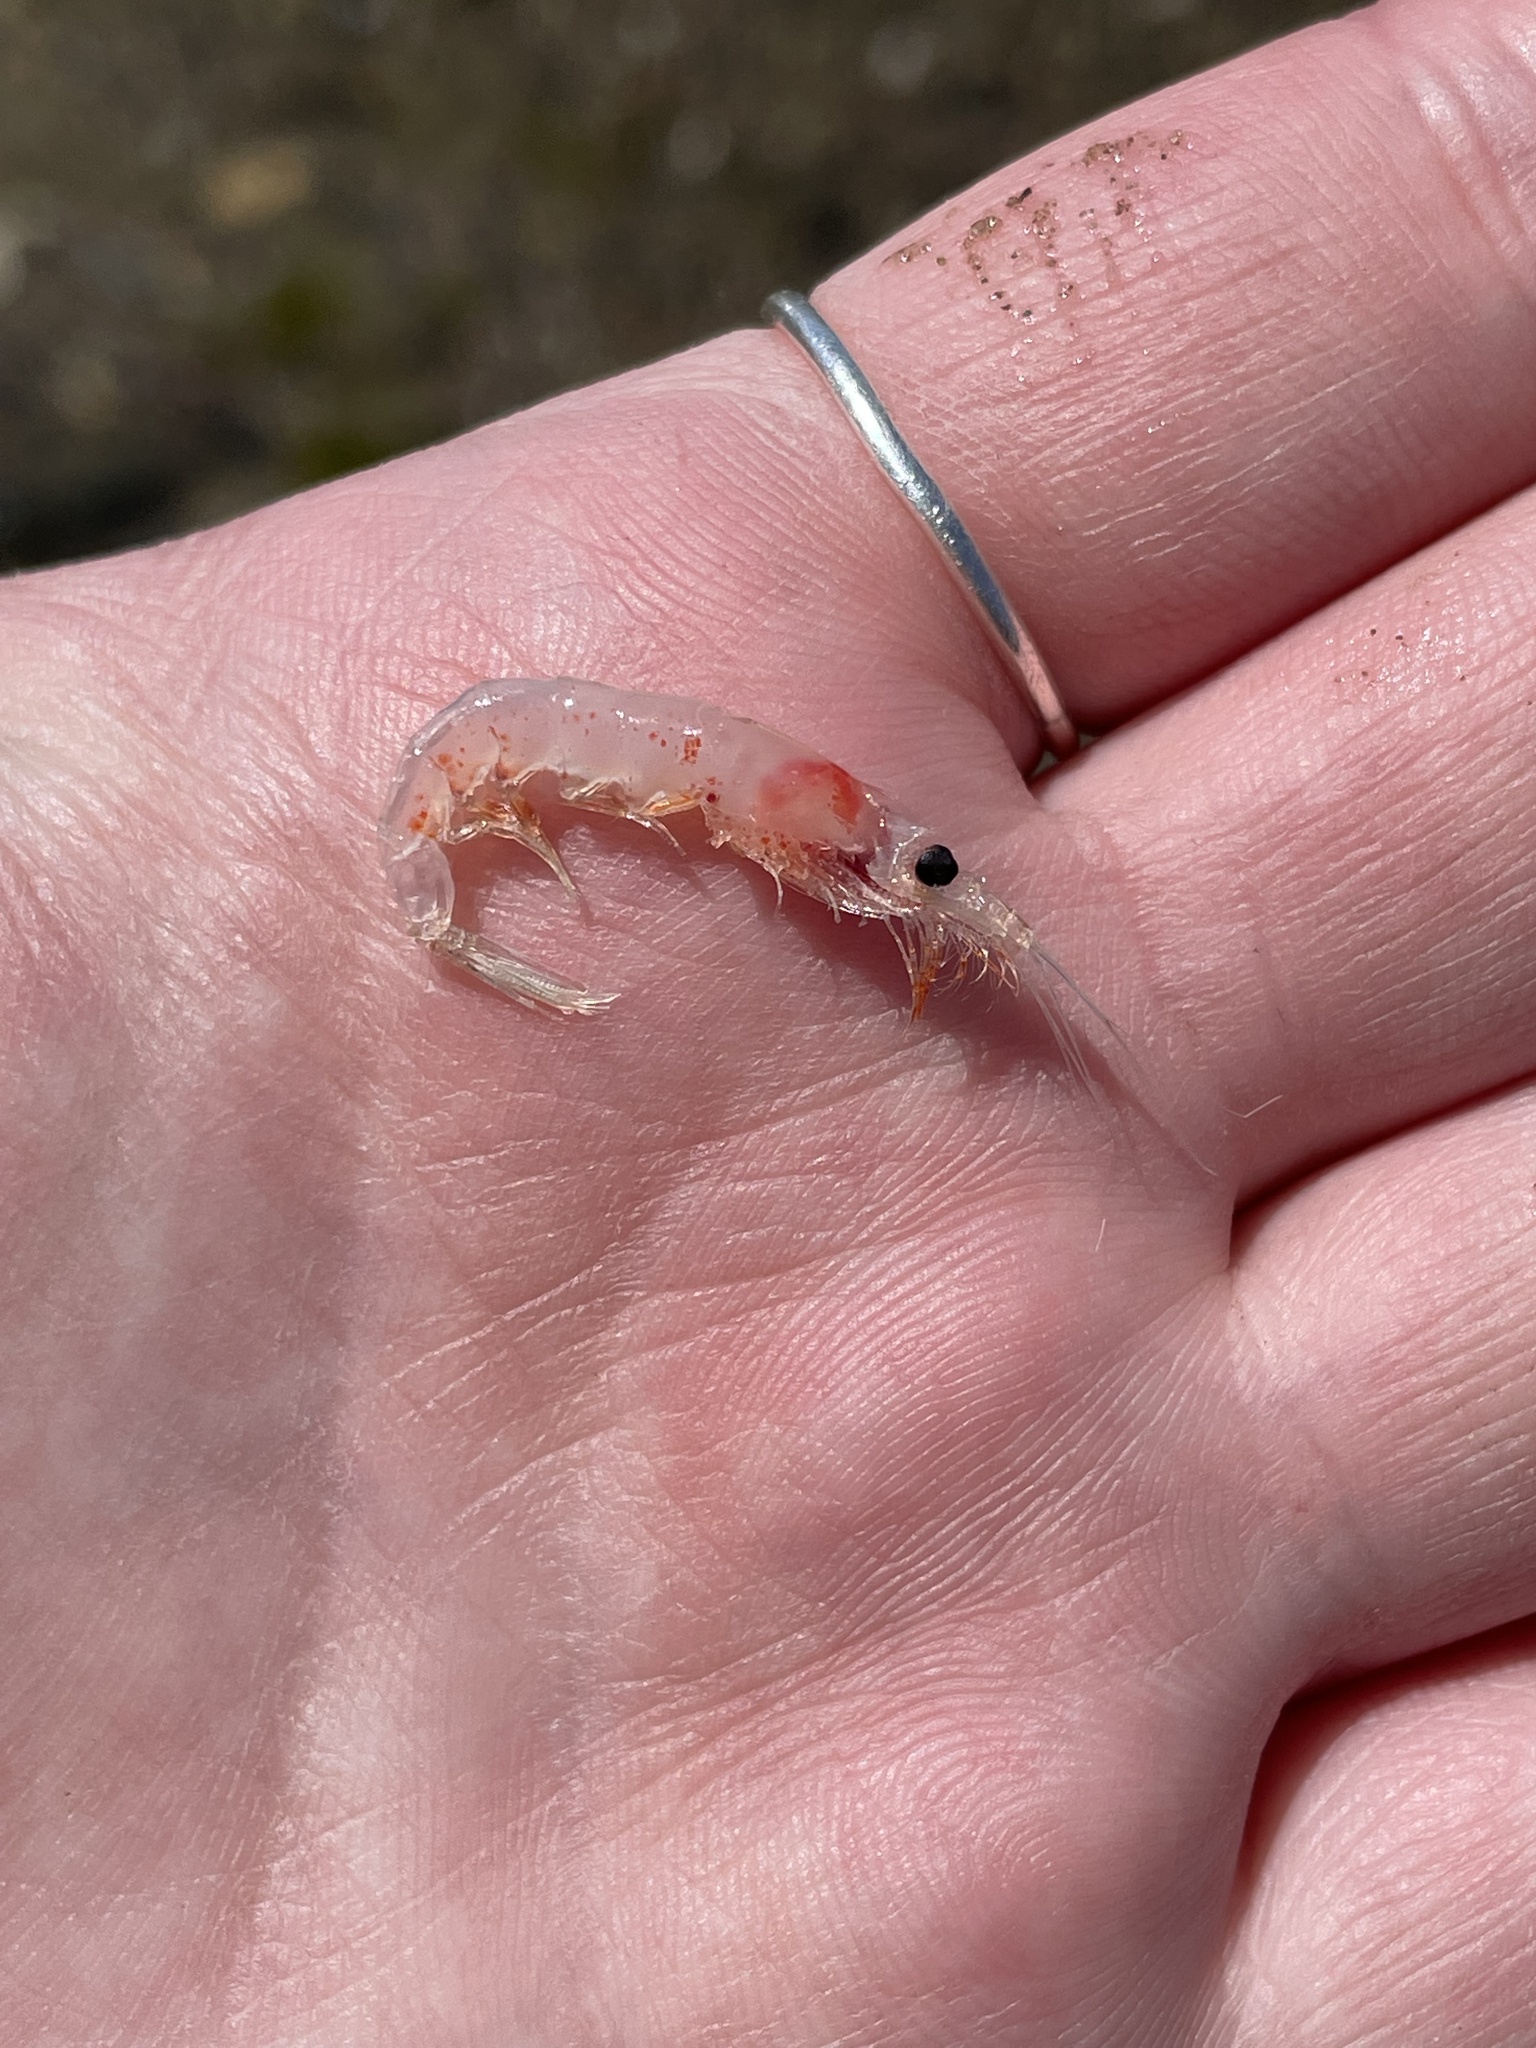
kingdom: Animalia
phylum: Arthropoda
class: Malacostraca
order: Euphausiacea
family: Euphausiidae
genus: Meganyctiphanes
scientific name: Meganyctiphanes norvegica
